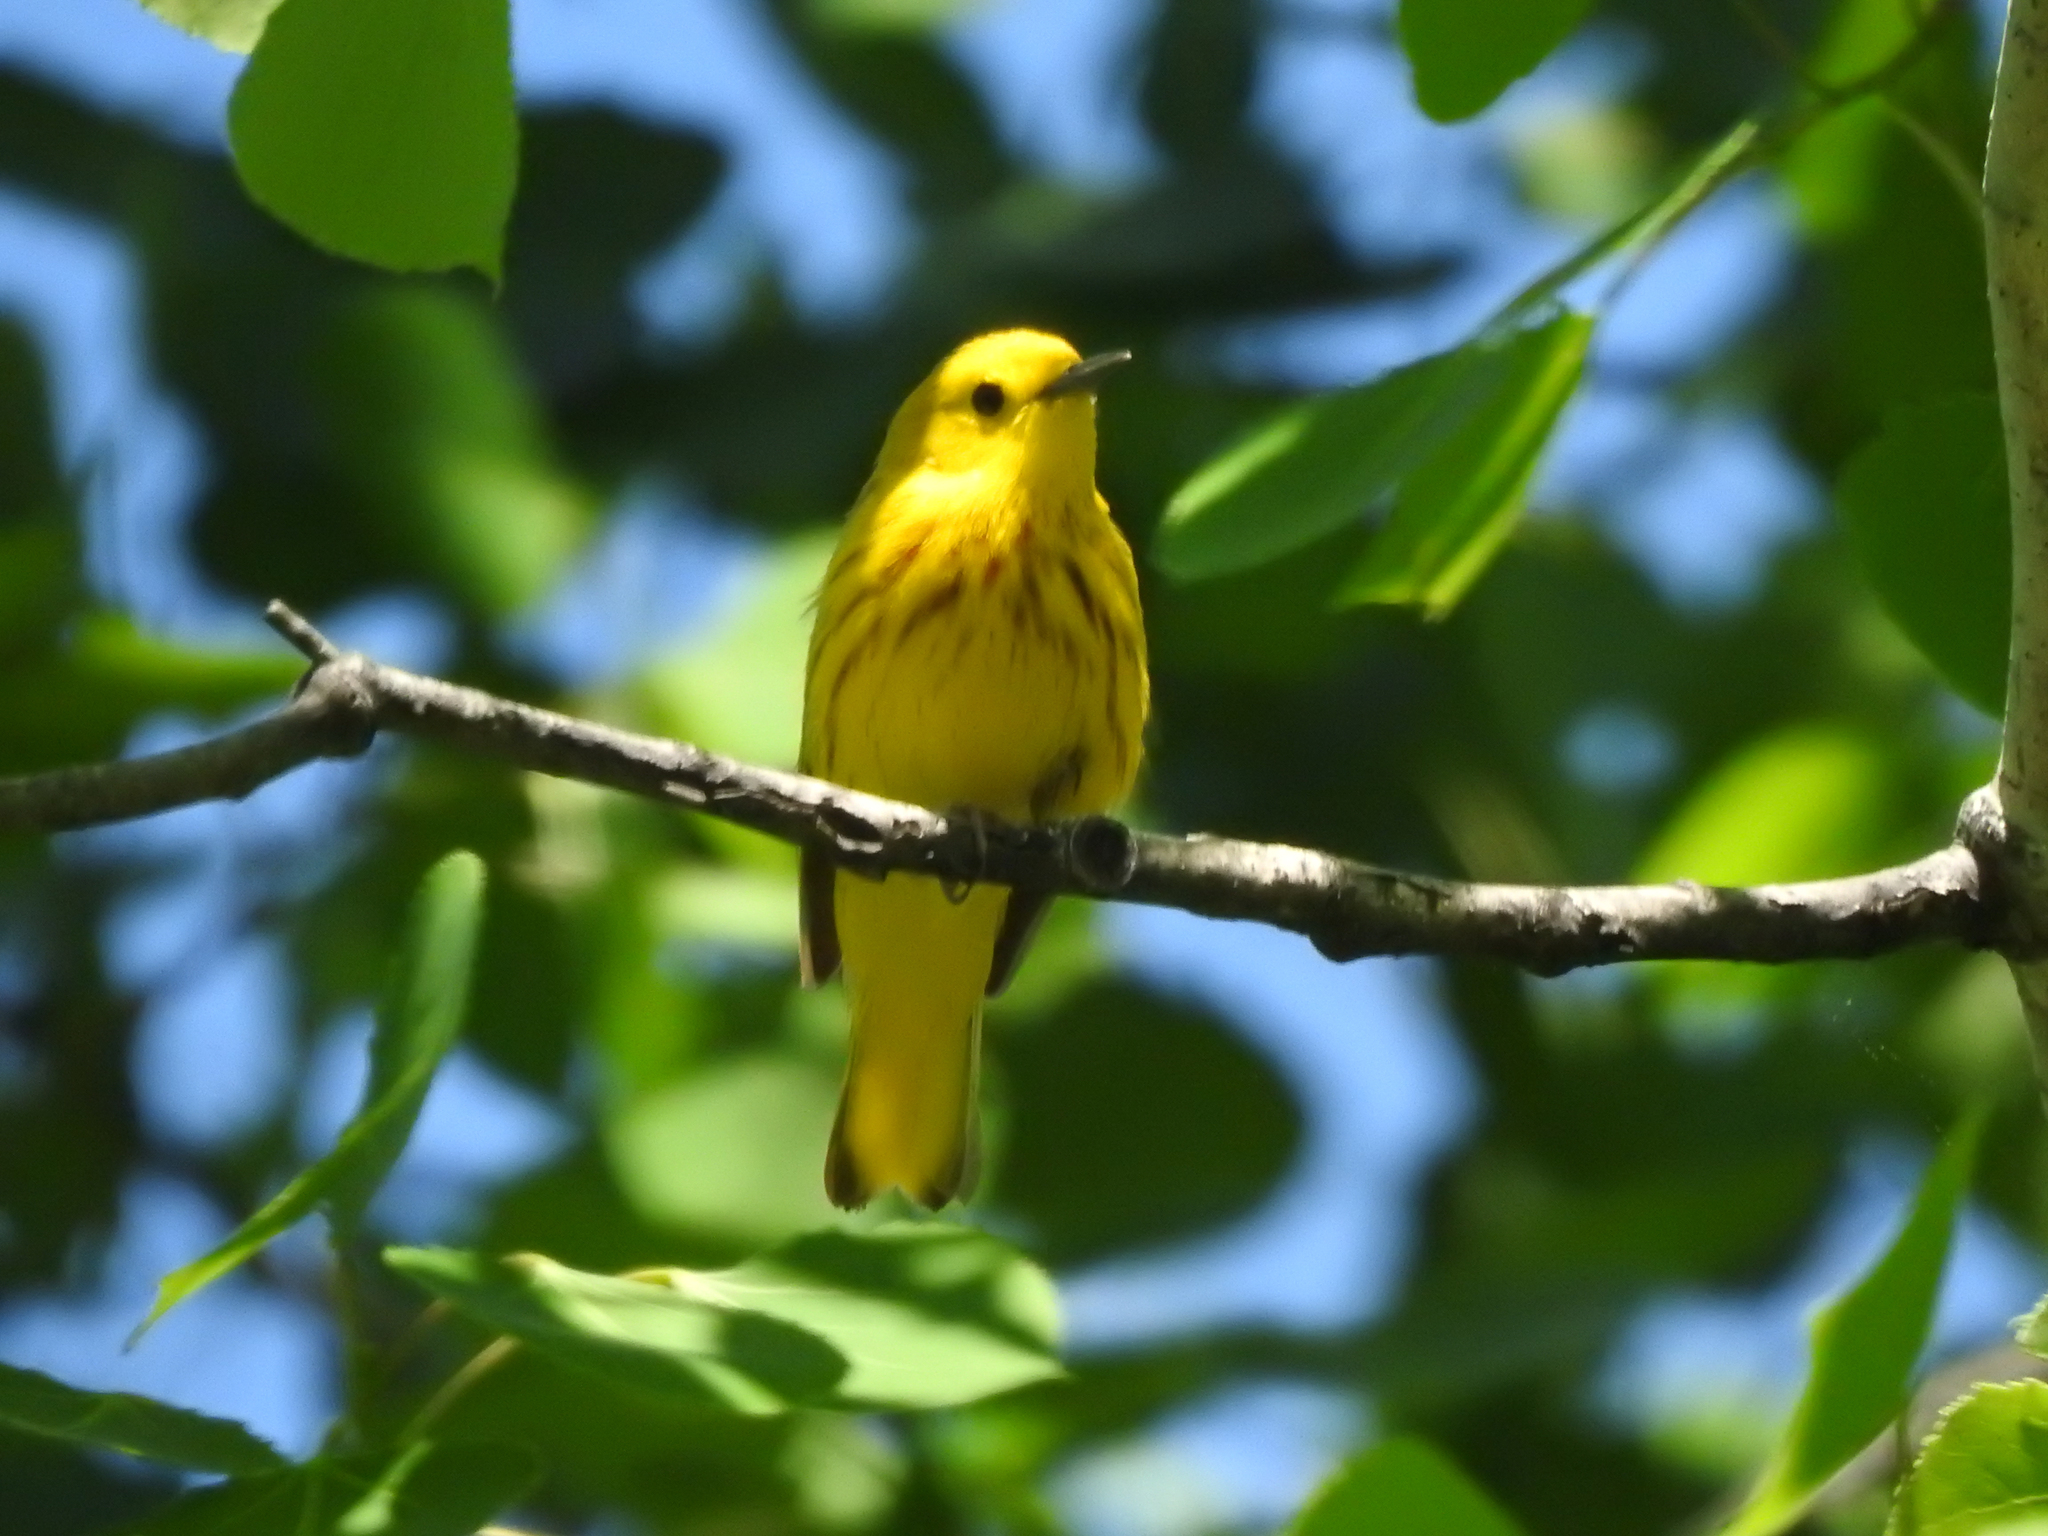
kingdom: Animalia
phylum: Chordata
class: Aves
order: Passeriformes
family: Parulidae
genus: Setophaga
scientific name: Setophaga petechia
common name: Yellow warbler
